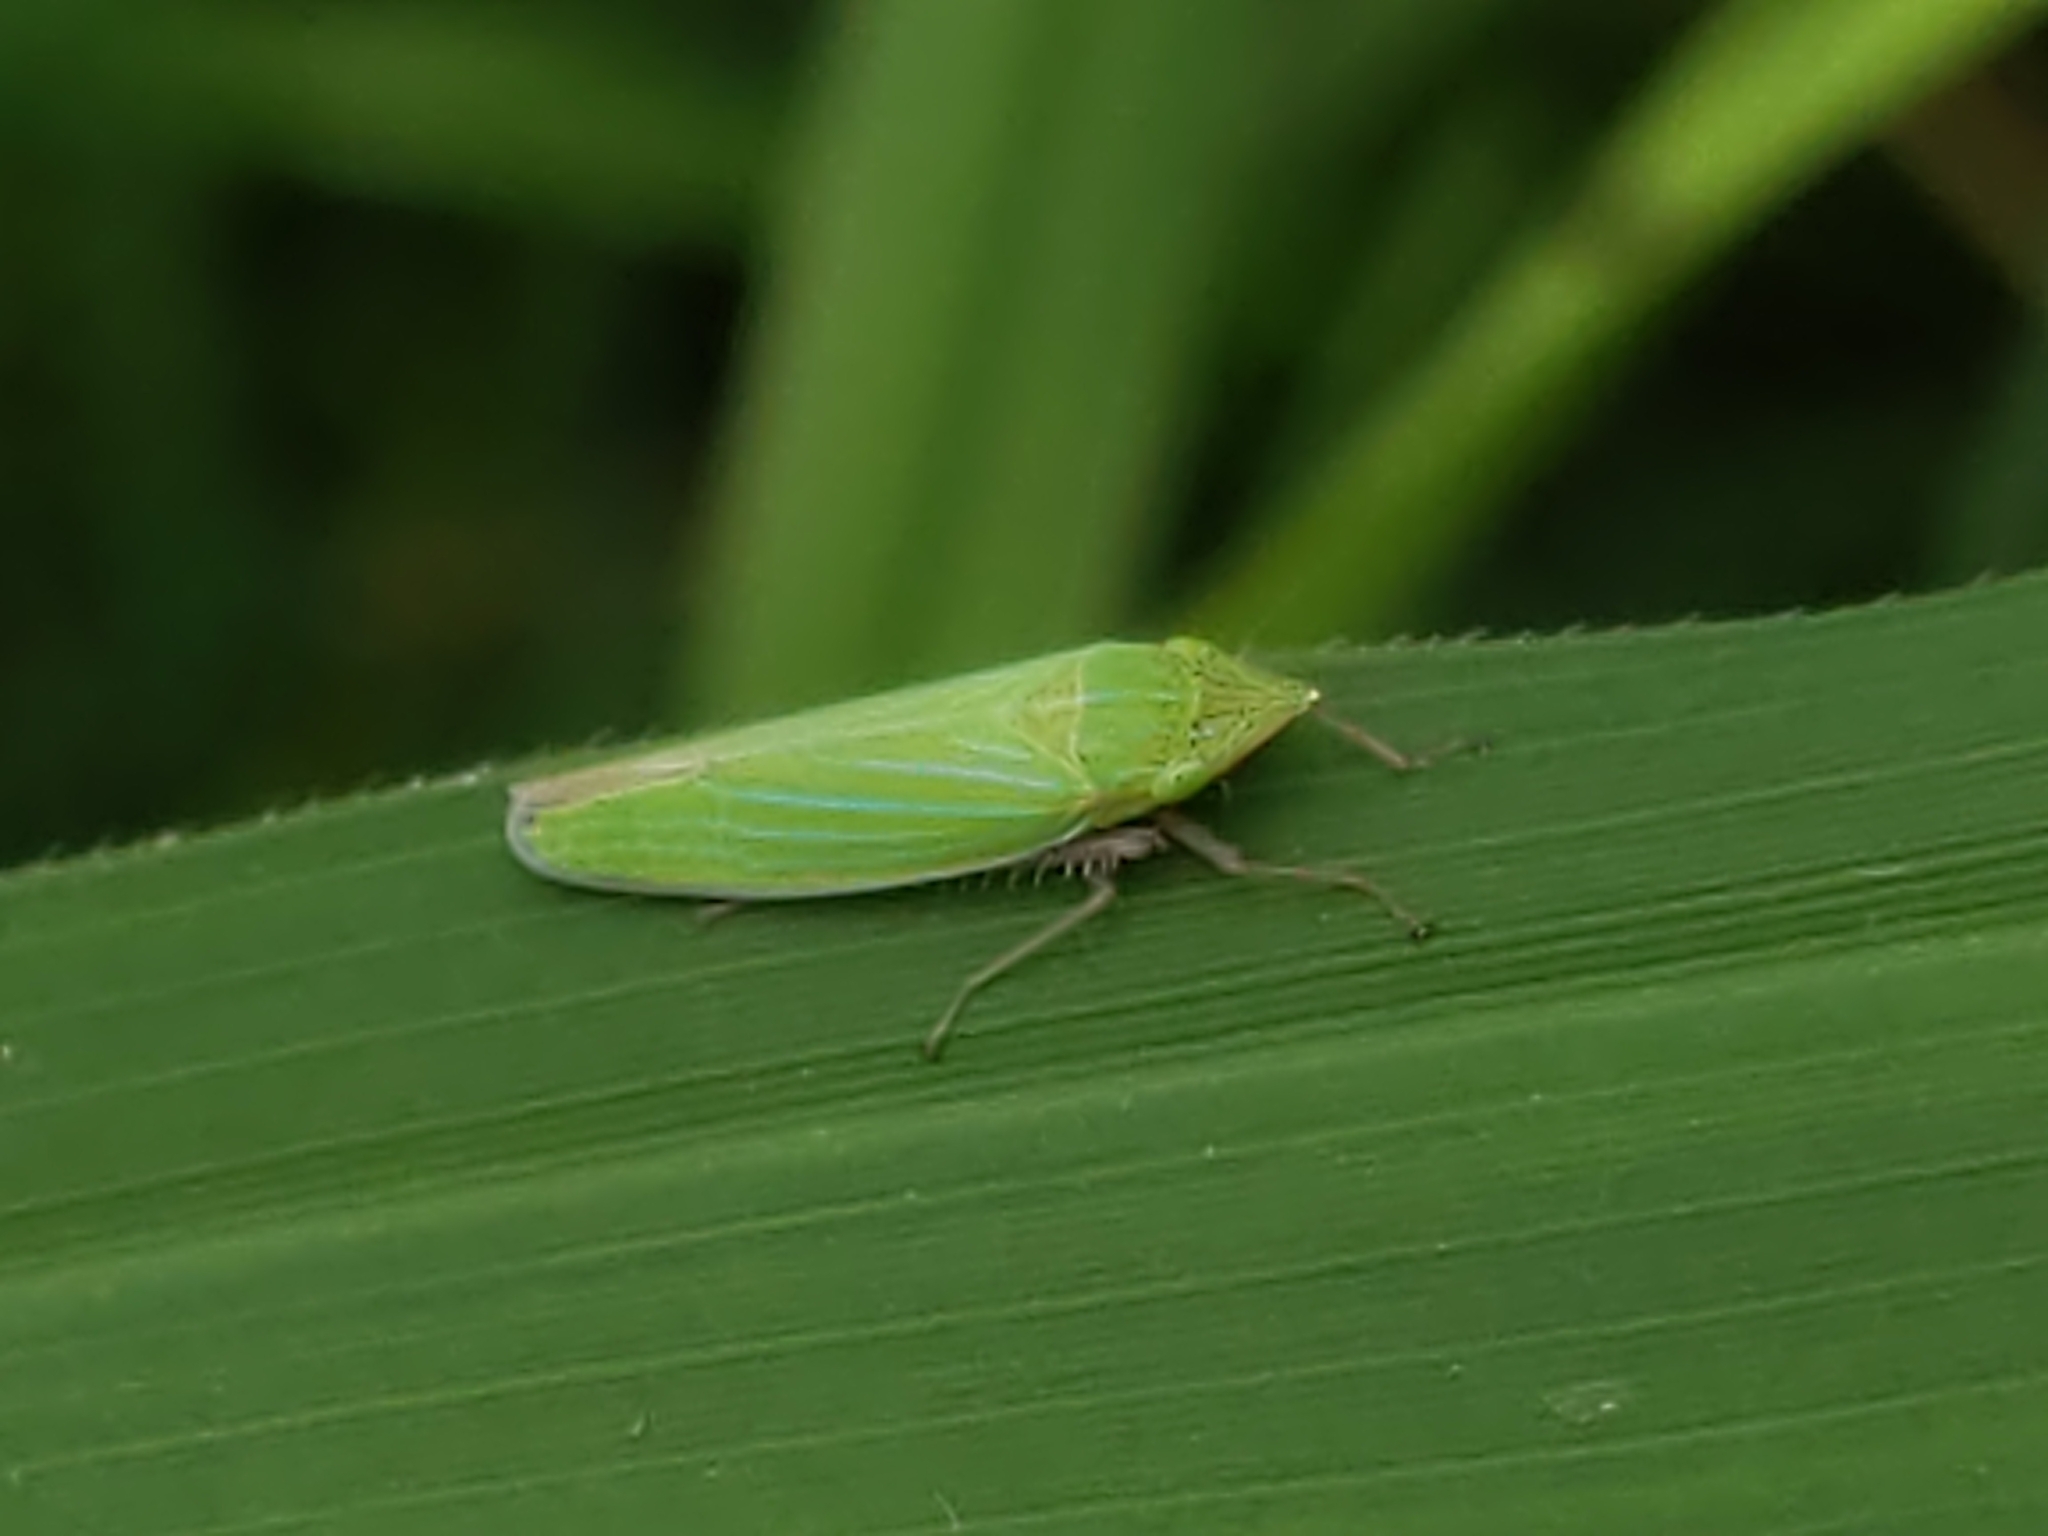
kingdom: Animalia
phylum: Arthropoda
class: Insecta
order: Hemiptera
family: Cicadellidae
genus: Draeculacephala
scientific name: Draeculacephala
